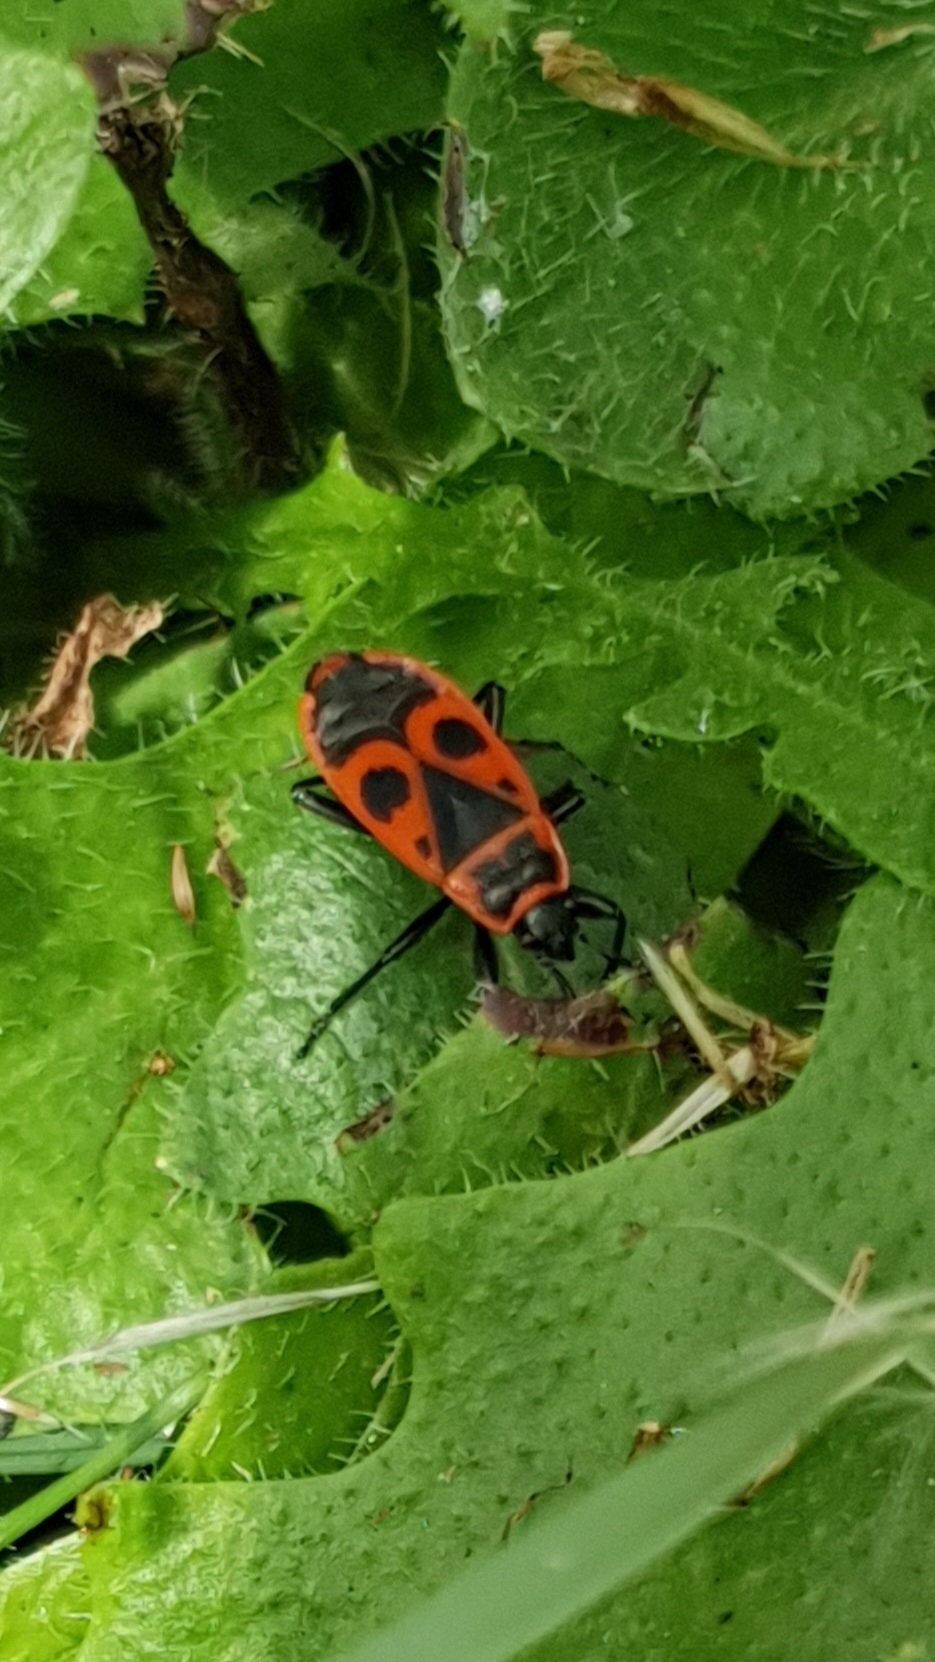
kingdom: Animalia
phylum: Arthropoda
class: Insecta
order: Hemiptera
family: Pyrrhocoridae
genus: Pyrrhocoris
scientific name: Pyrrhocoris apterus
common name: Firebug
